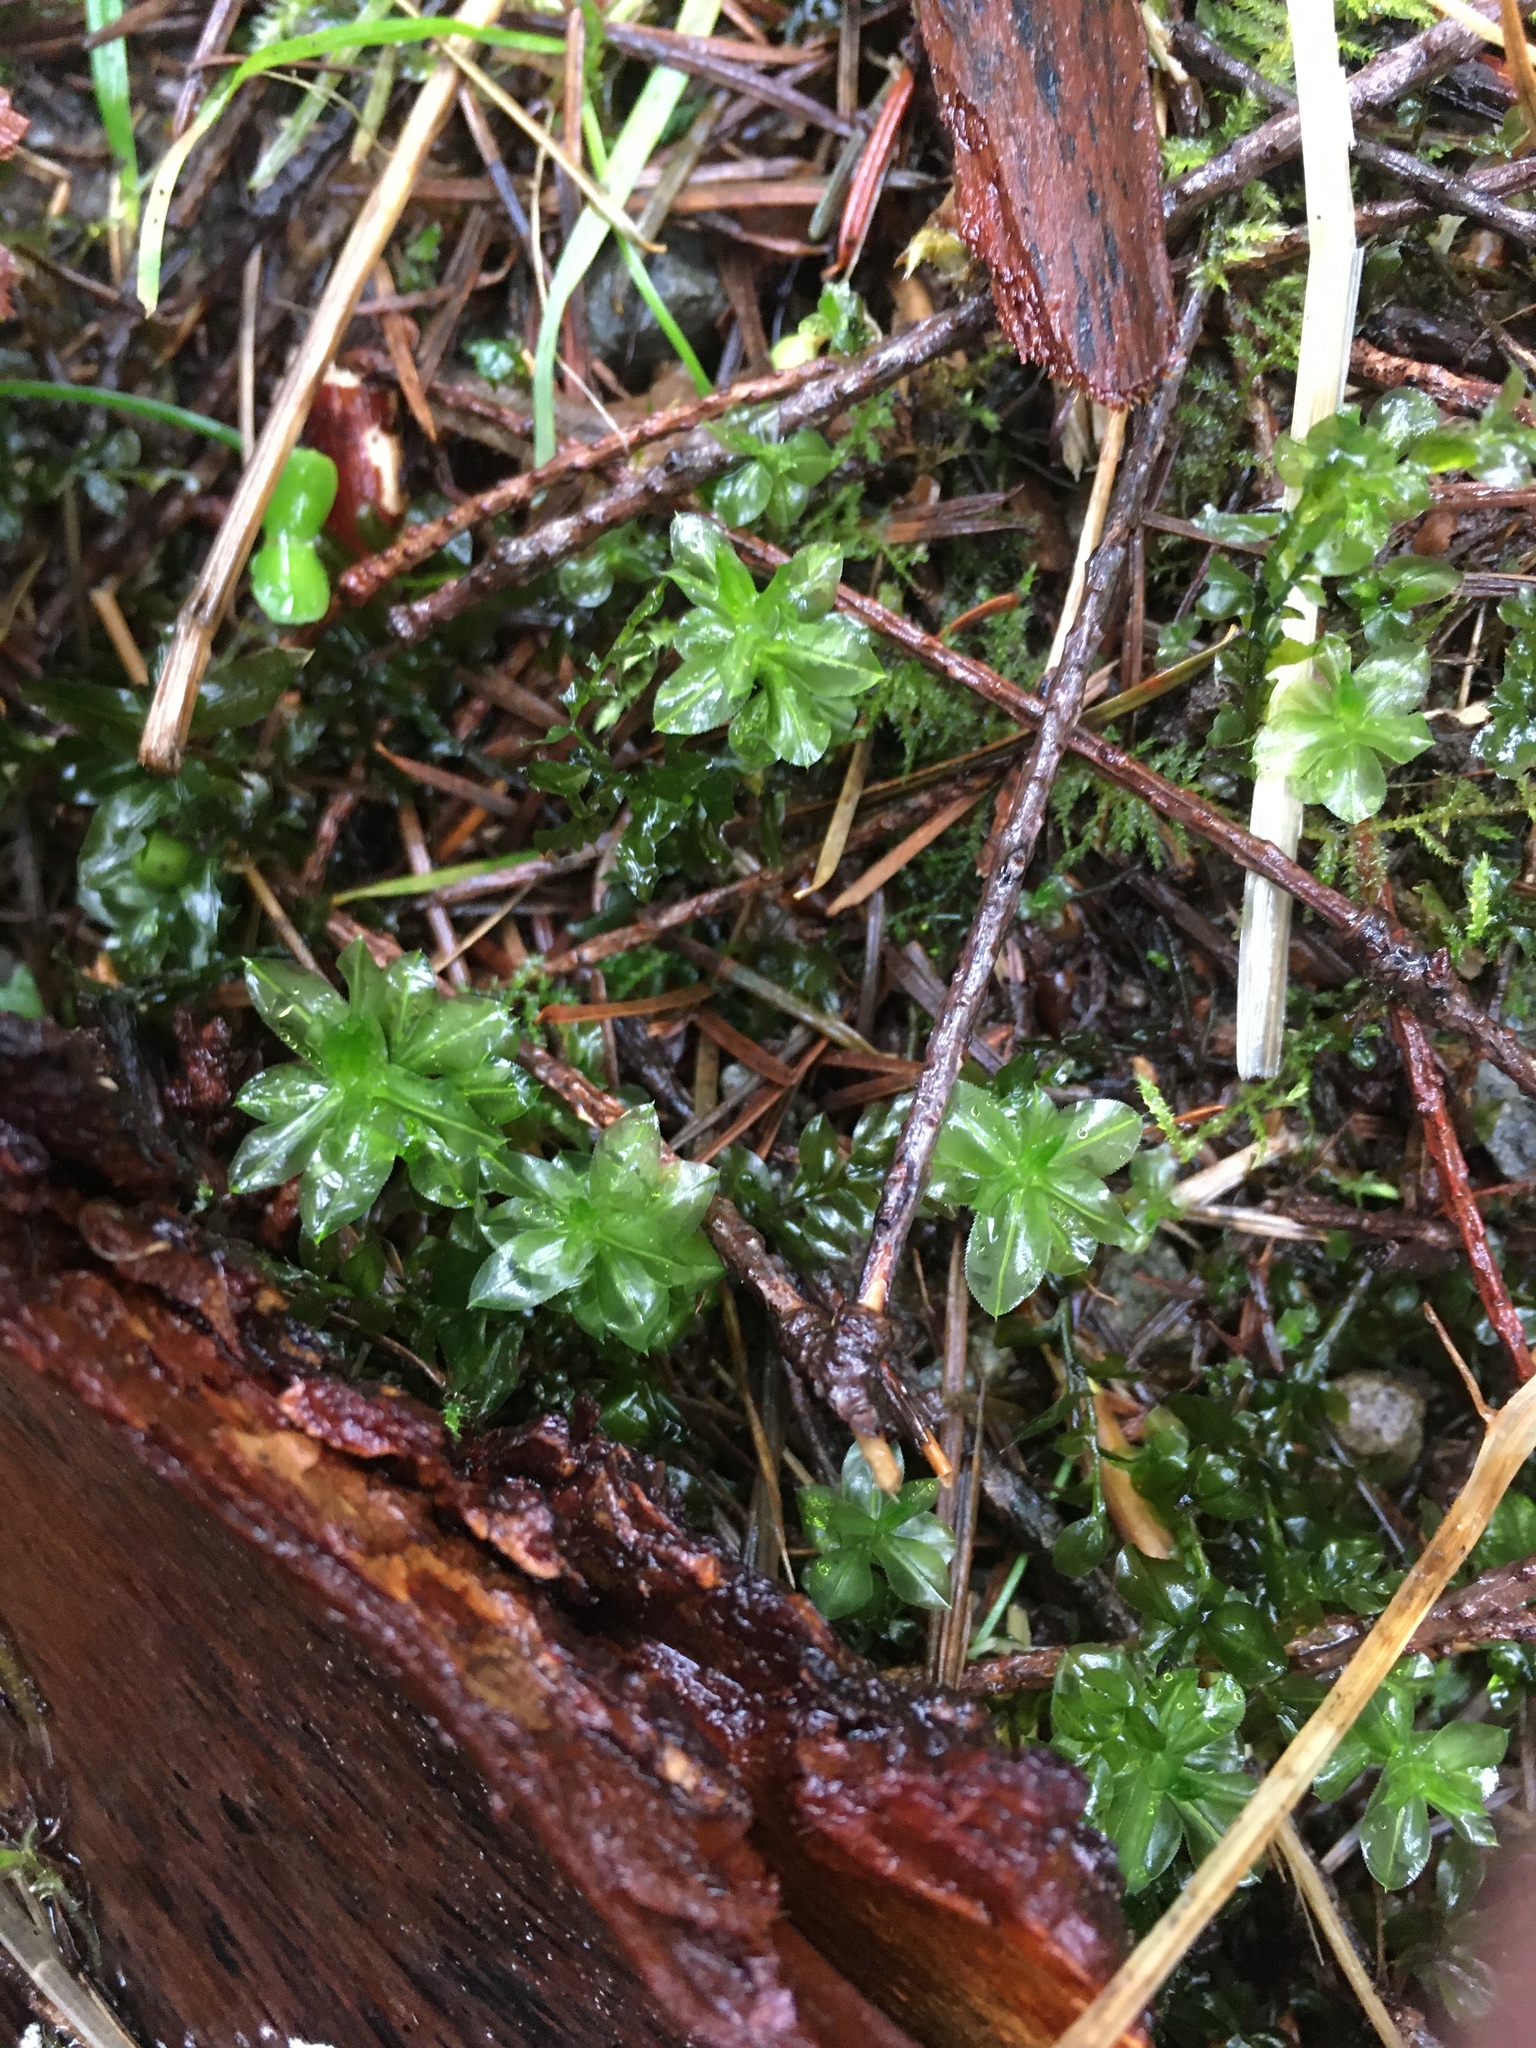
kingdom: Plantae
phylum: Bryophyta
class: Bryopsida
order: Bryales
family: Mniaceae
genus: Plagiomnium
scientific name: Plagiomnium insigne
